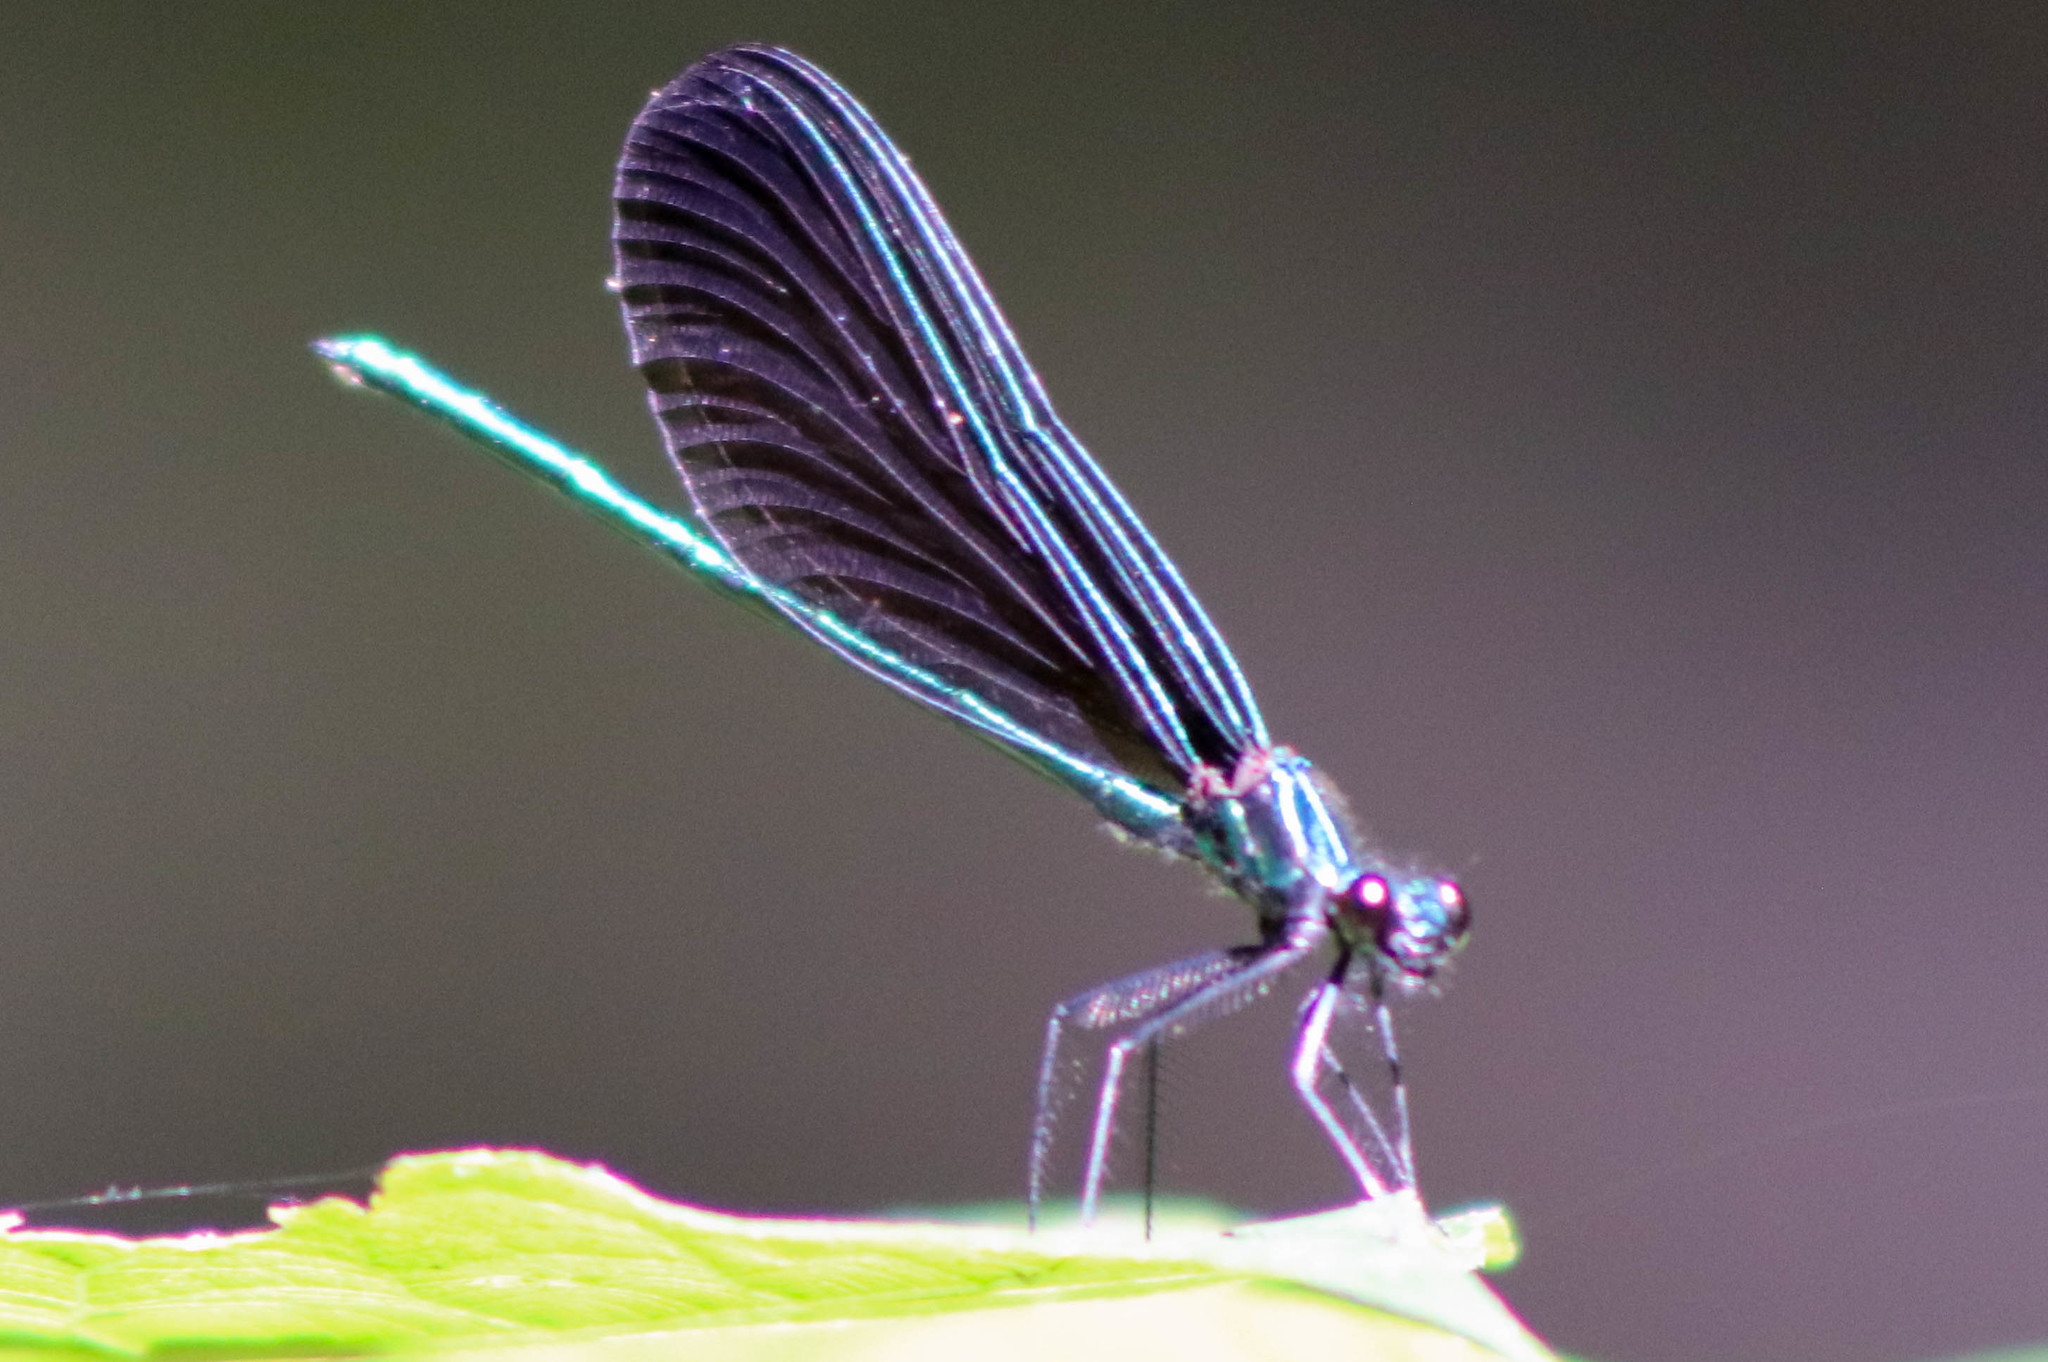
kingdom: Animalia
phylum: Arthropoda
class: Insecta
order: Odonata
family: Calopterygidae
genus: Calopteryx
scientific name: Calopteryx maculata
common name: Ebony jewelwing
